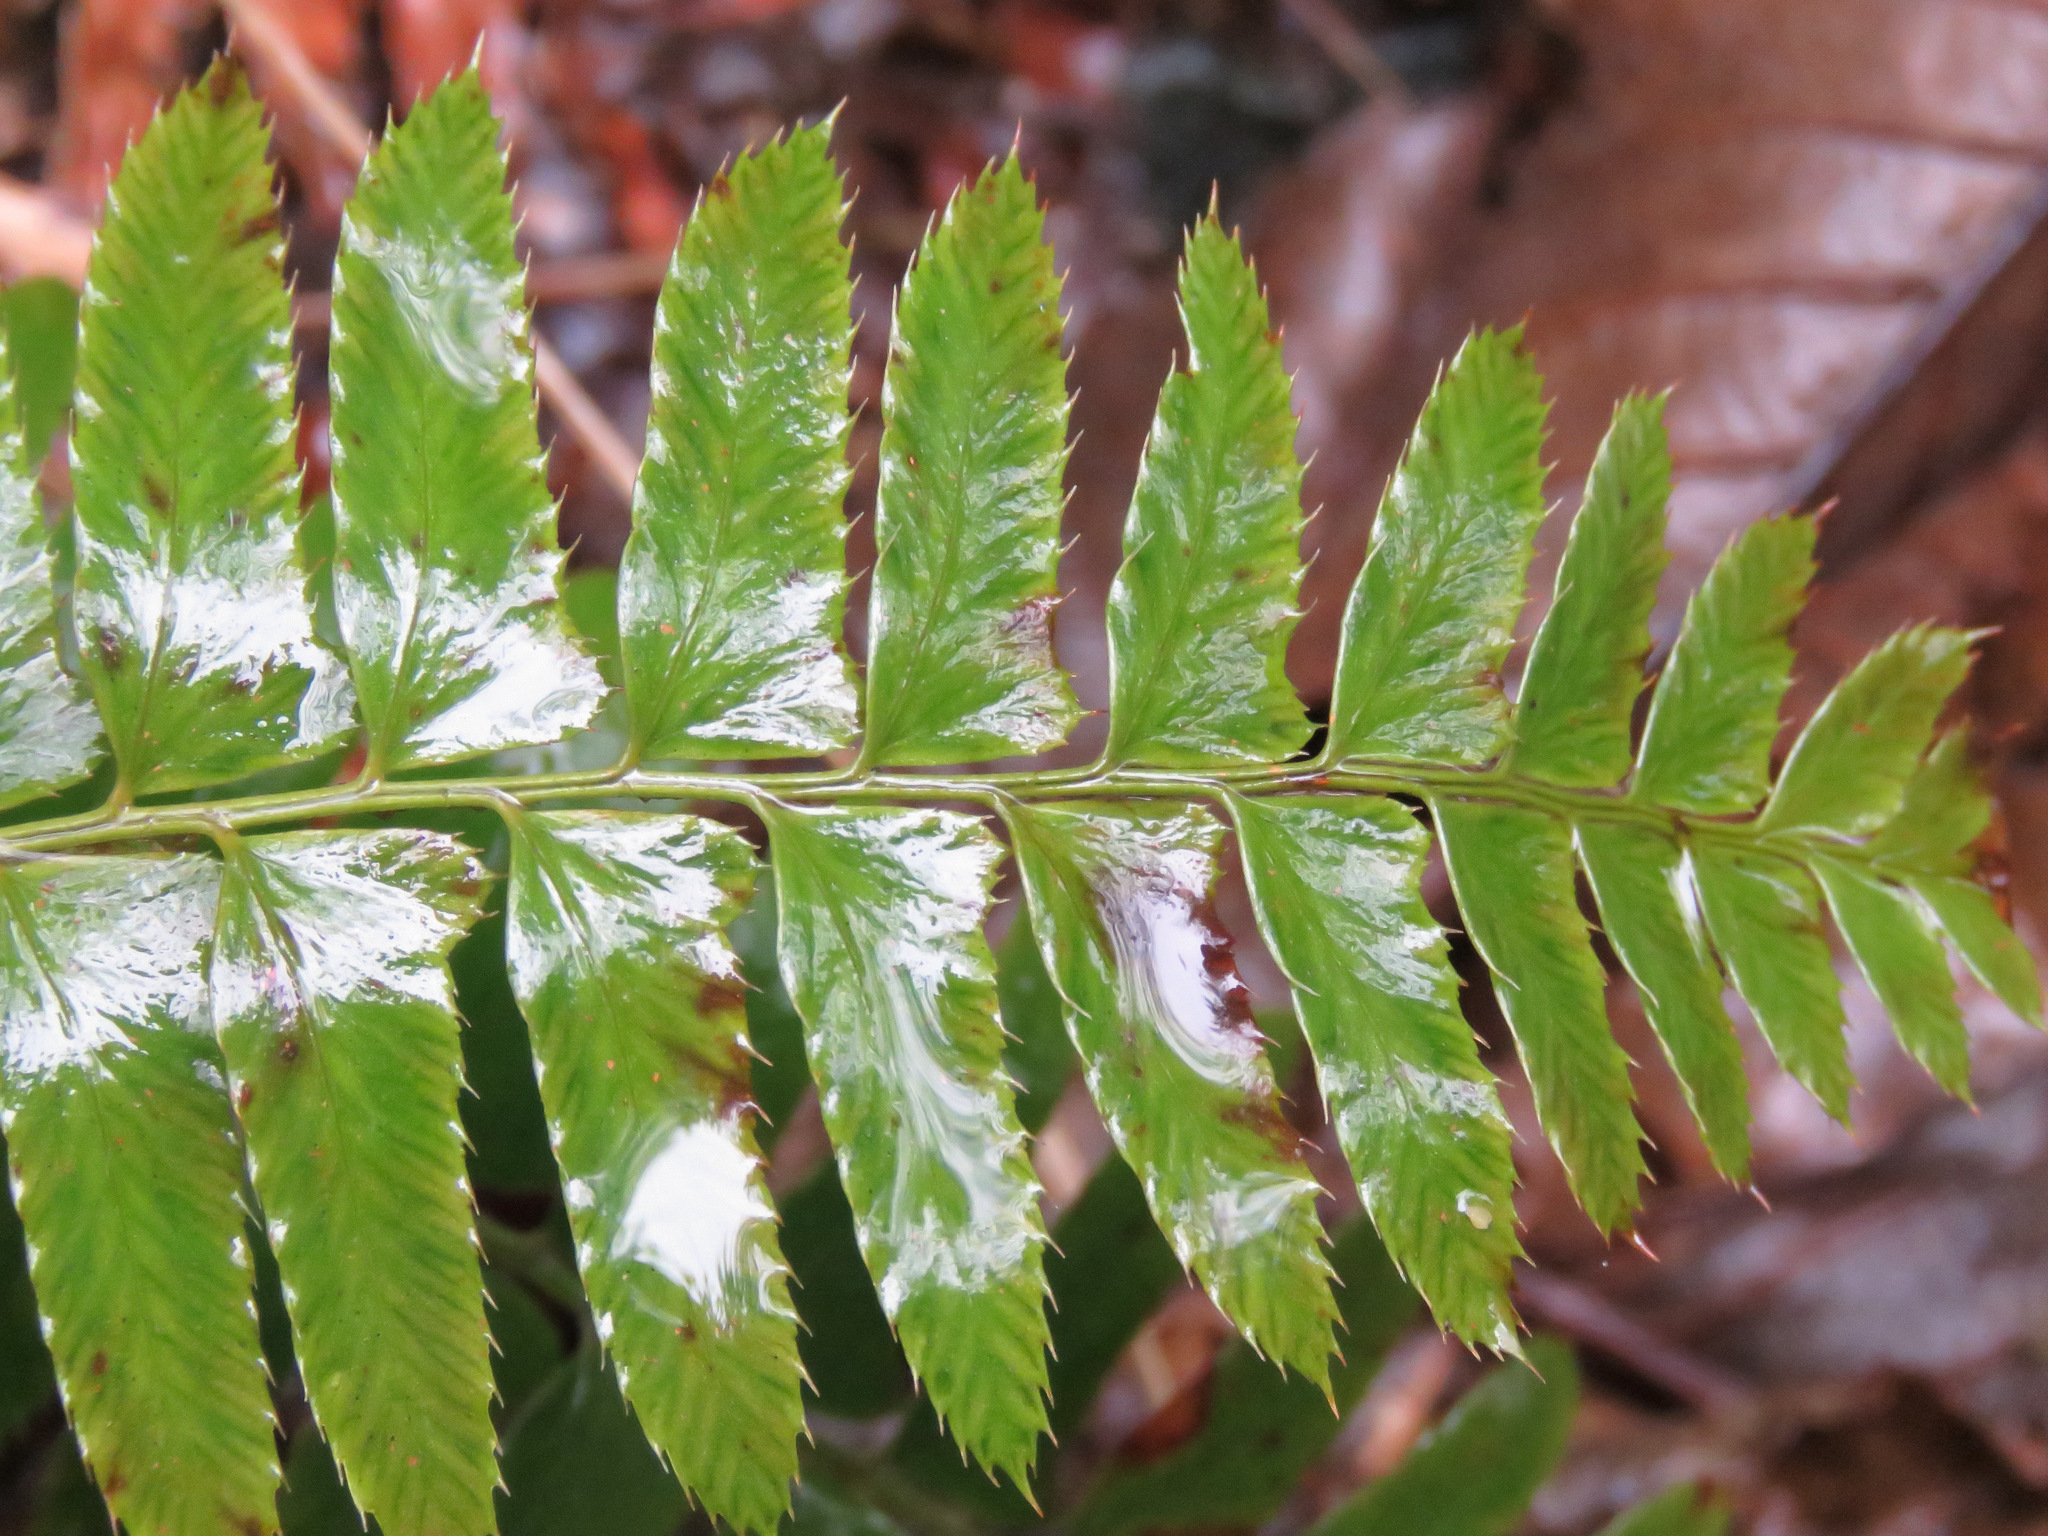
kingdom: Plantae
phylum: Tracheophyta
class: Polypodiopsida
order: Polypodiales
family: Dryopteridaceae
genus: Polystichum
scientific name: Polystichum munitum
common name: Western sword-fern
